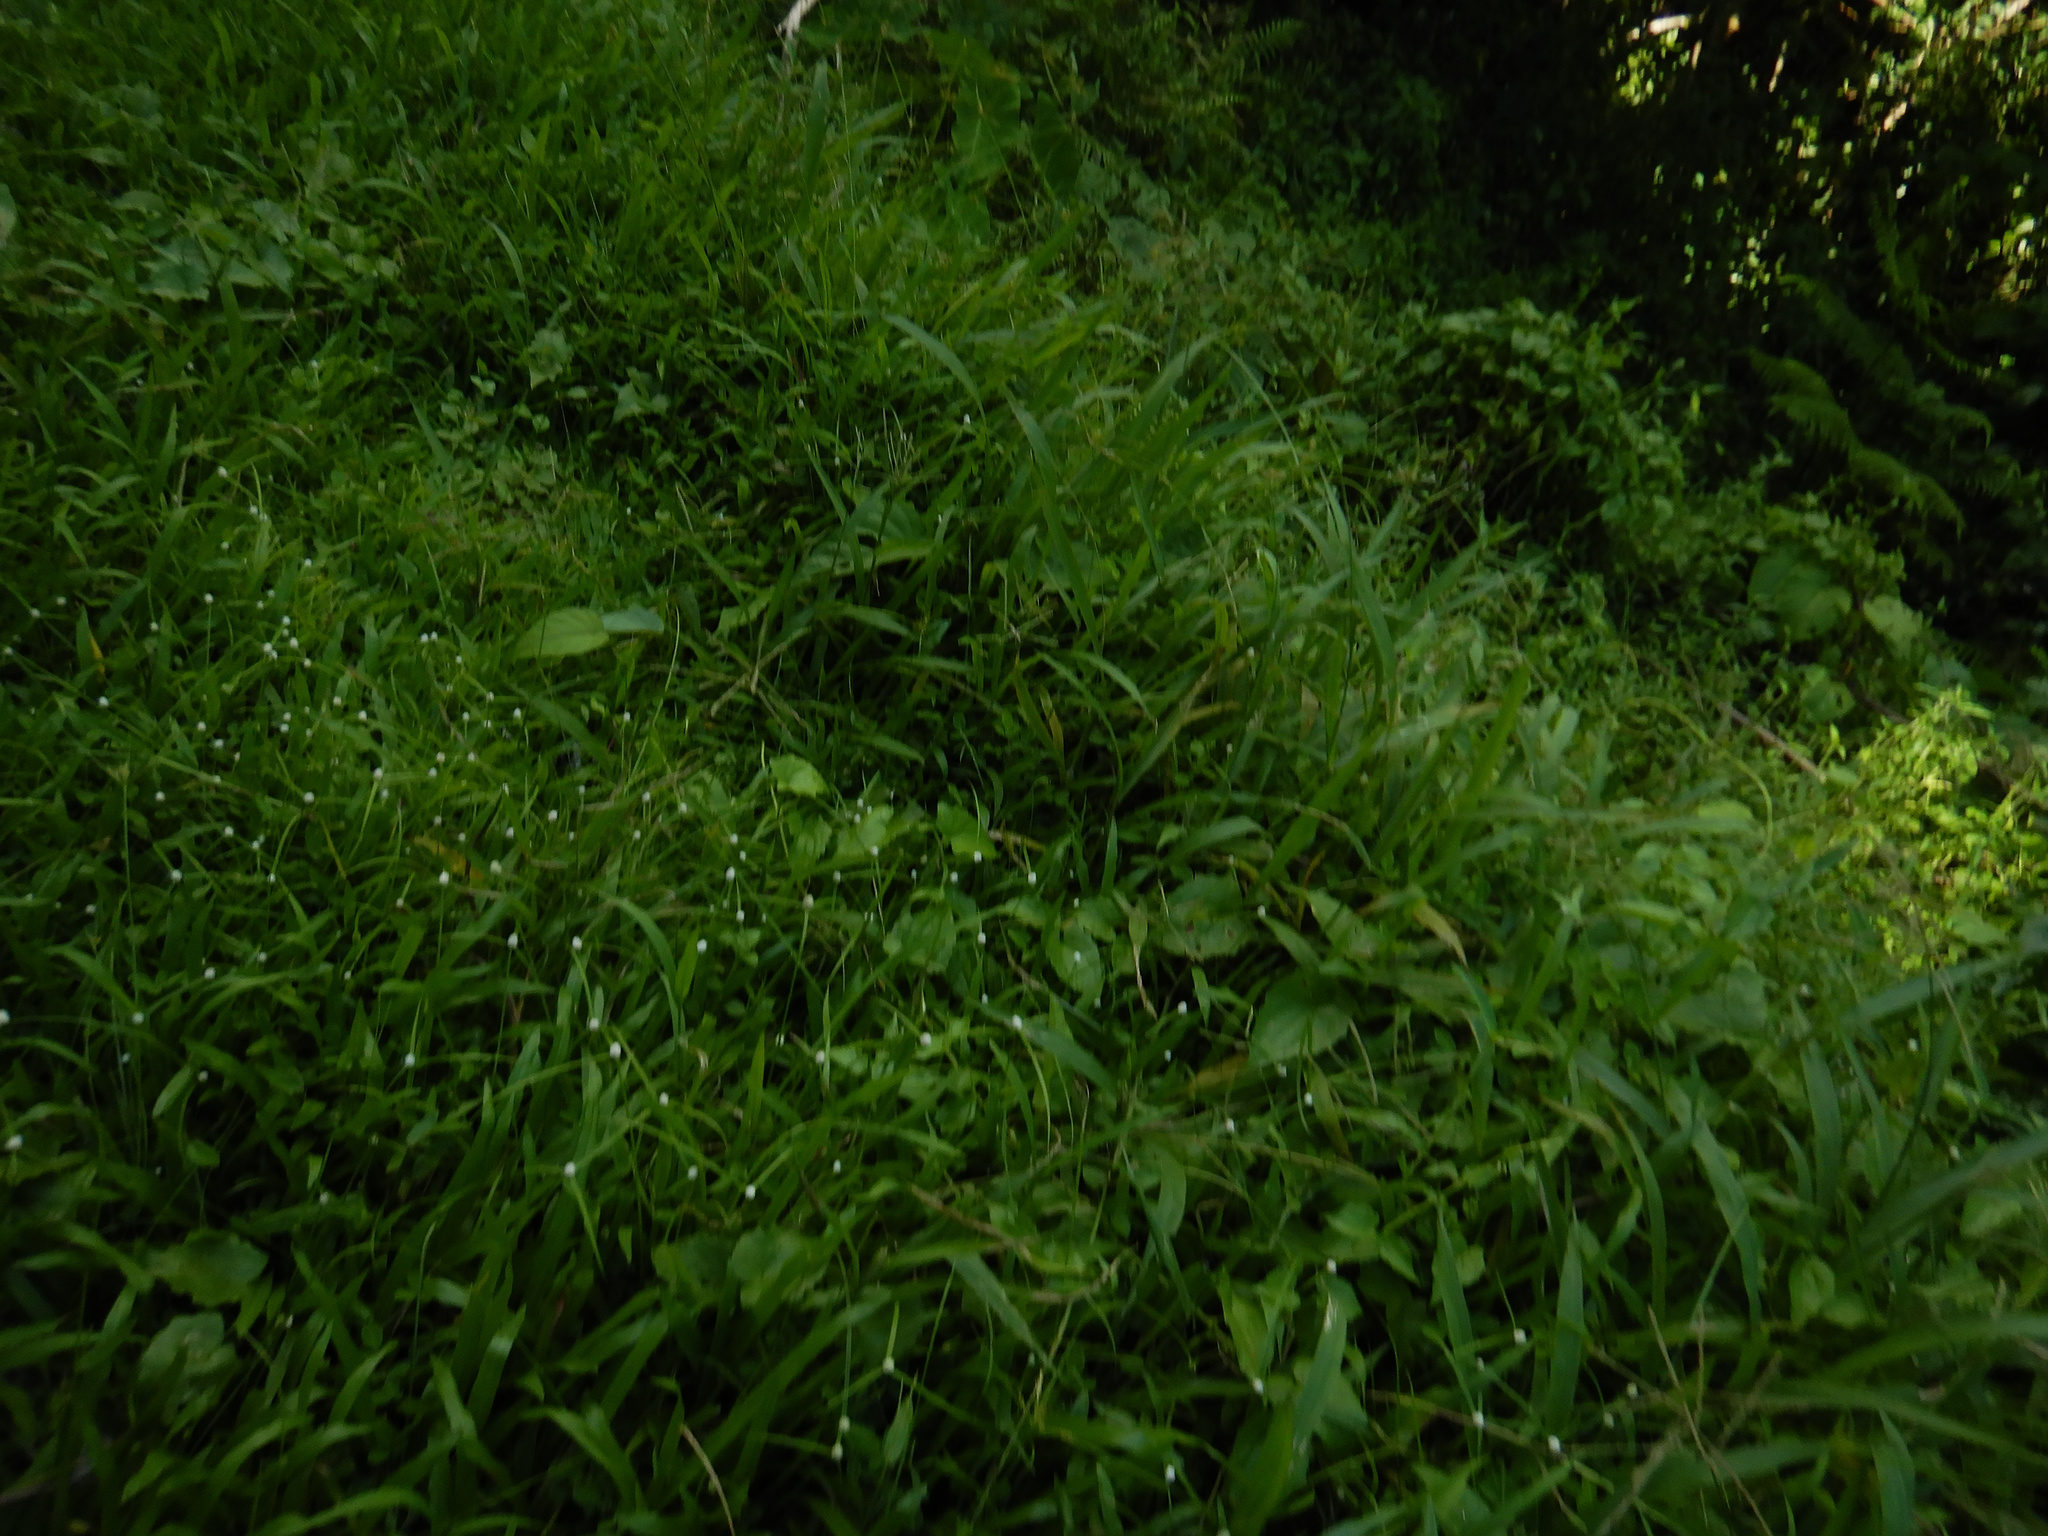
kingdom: Plantae
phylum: Tracheophyta
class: Liliopsida
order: Poales
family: Cyperaceae
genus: Cyperus
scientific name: Cyperus mindorensis
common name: Flatsedge
